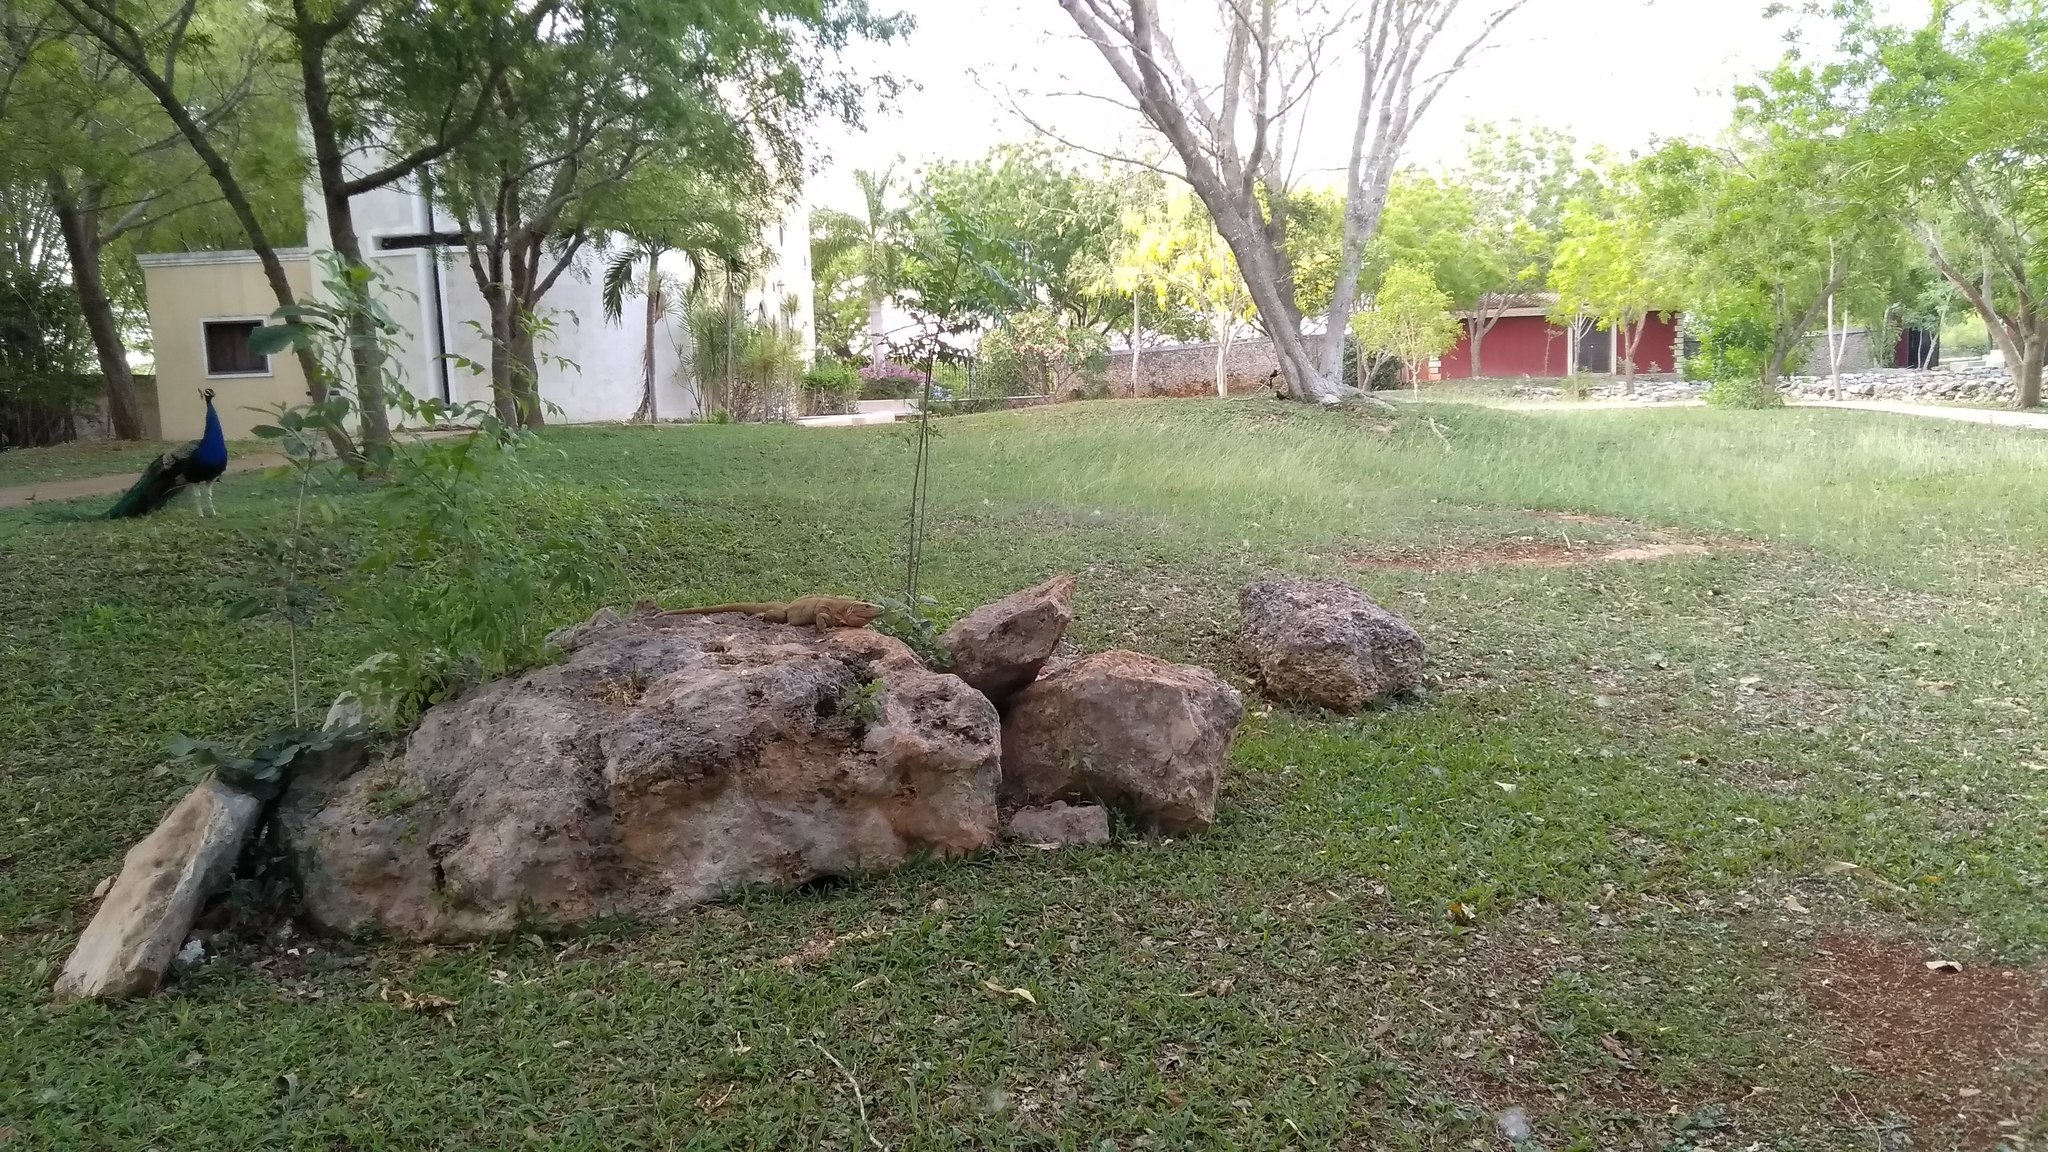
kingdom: Animalia
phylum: Chordata
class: Squamata
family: Iguanidae
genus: Ctenosaura
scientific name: Ctenosaura similis
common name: Black spiny-tailed iguana
